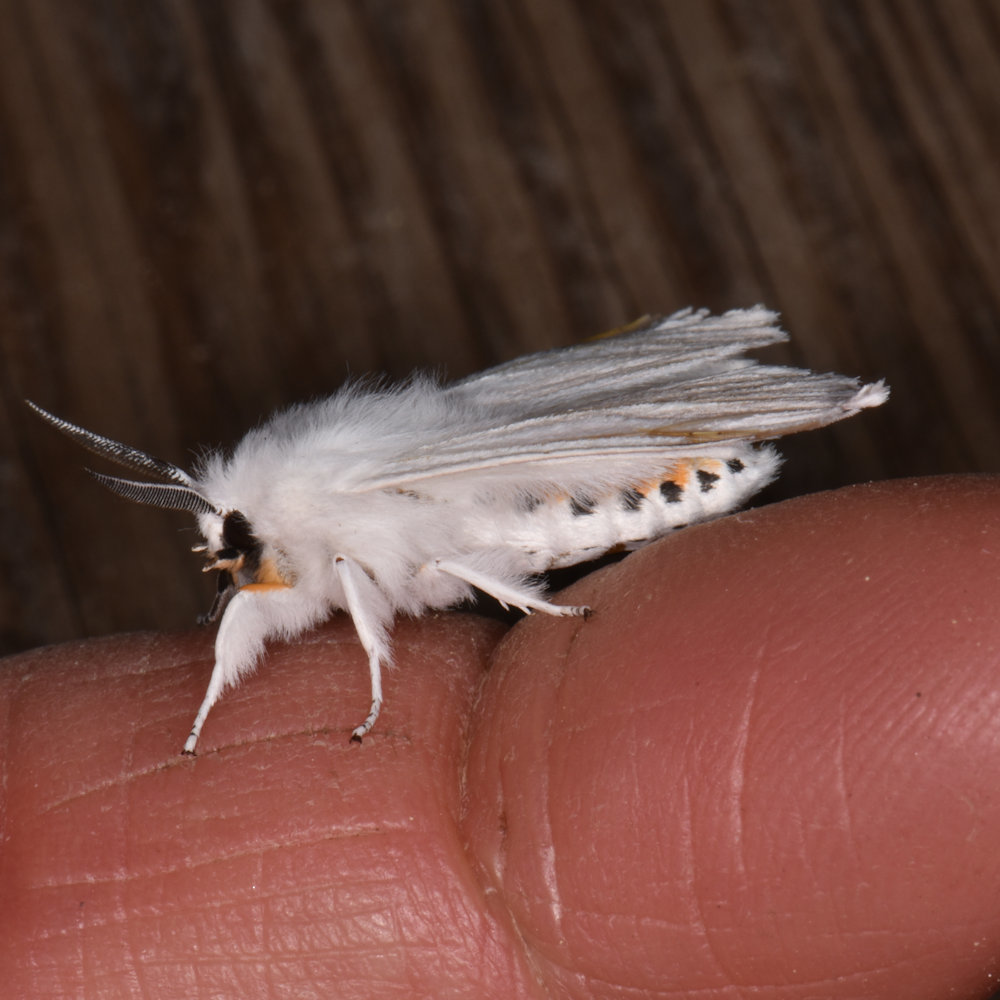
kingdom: Animalia
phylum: Arthropoda
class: Insecta
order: Lepidoptera
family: Erebidae
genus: Spilosoma
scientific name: Spilosoma virginica
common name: Virginia tiger moth
